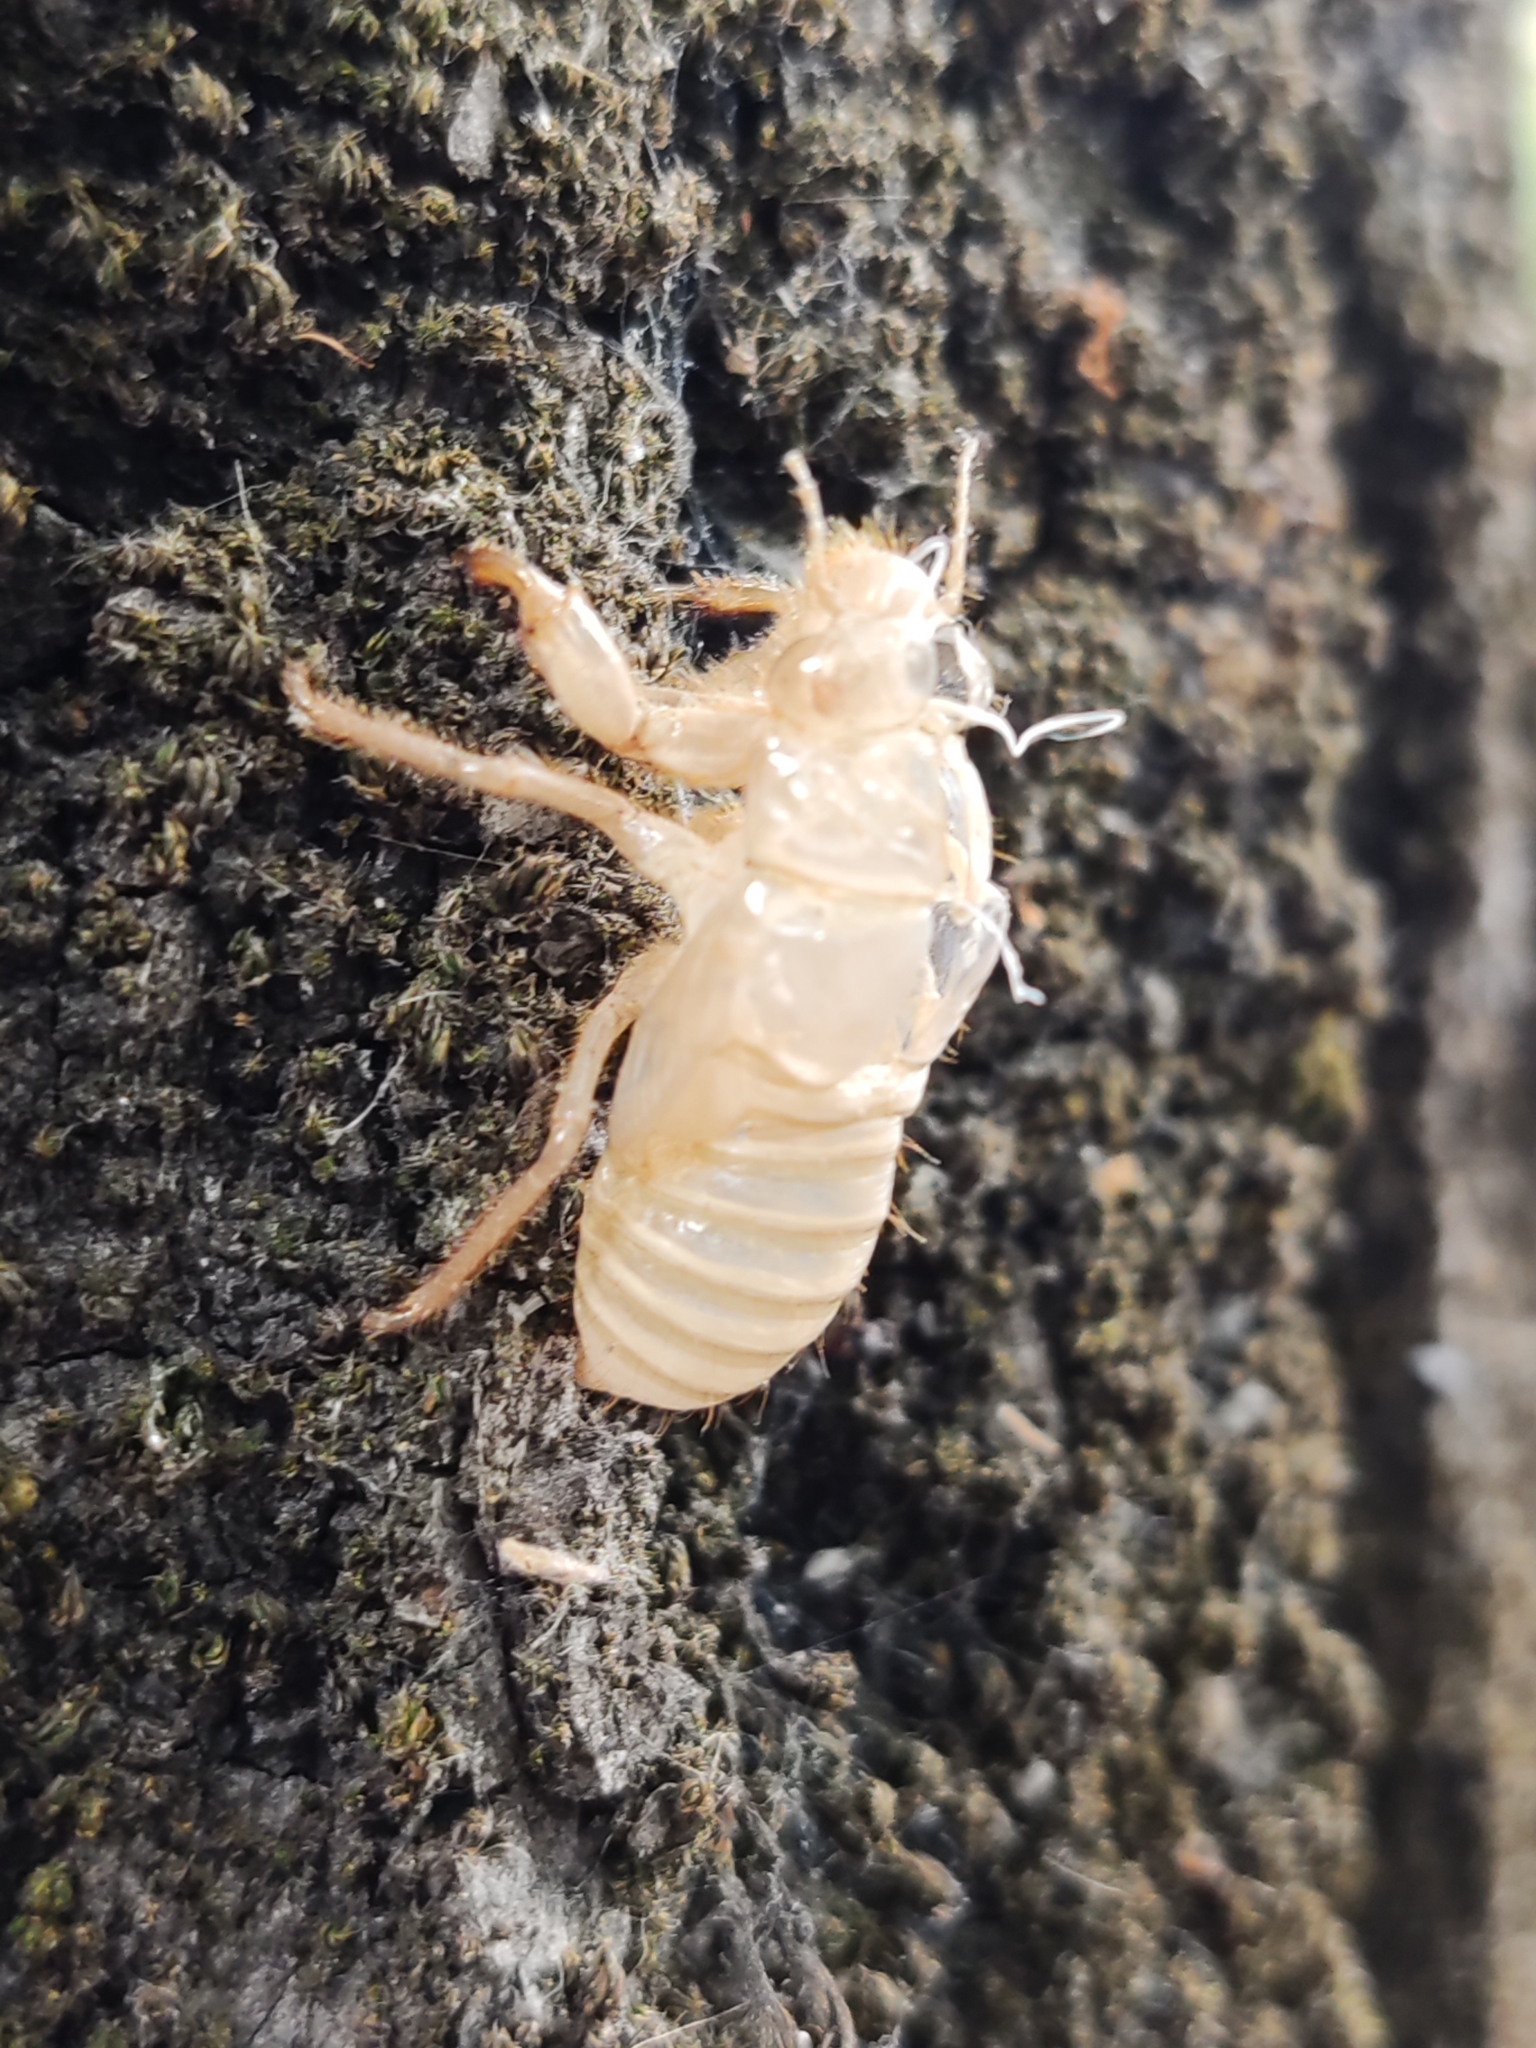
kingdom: Animalia
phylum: Arthropoda
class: Insecta
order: Hemiptera
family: Cicadidae
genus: Cicada
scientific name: Cicada orni
